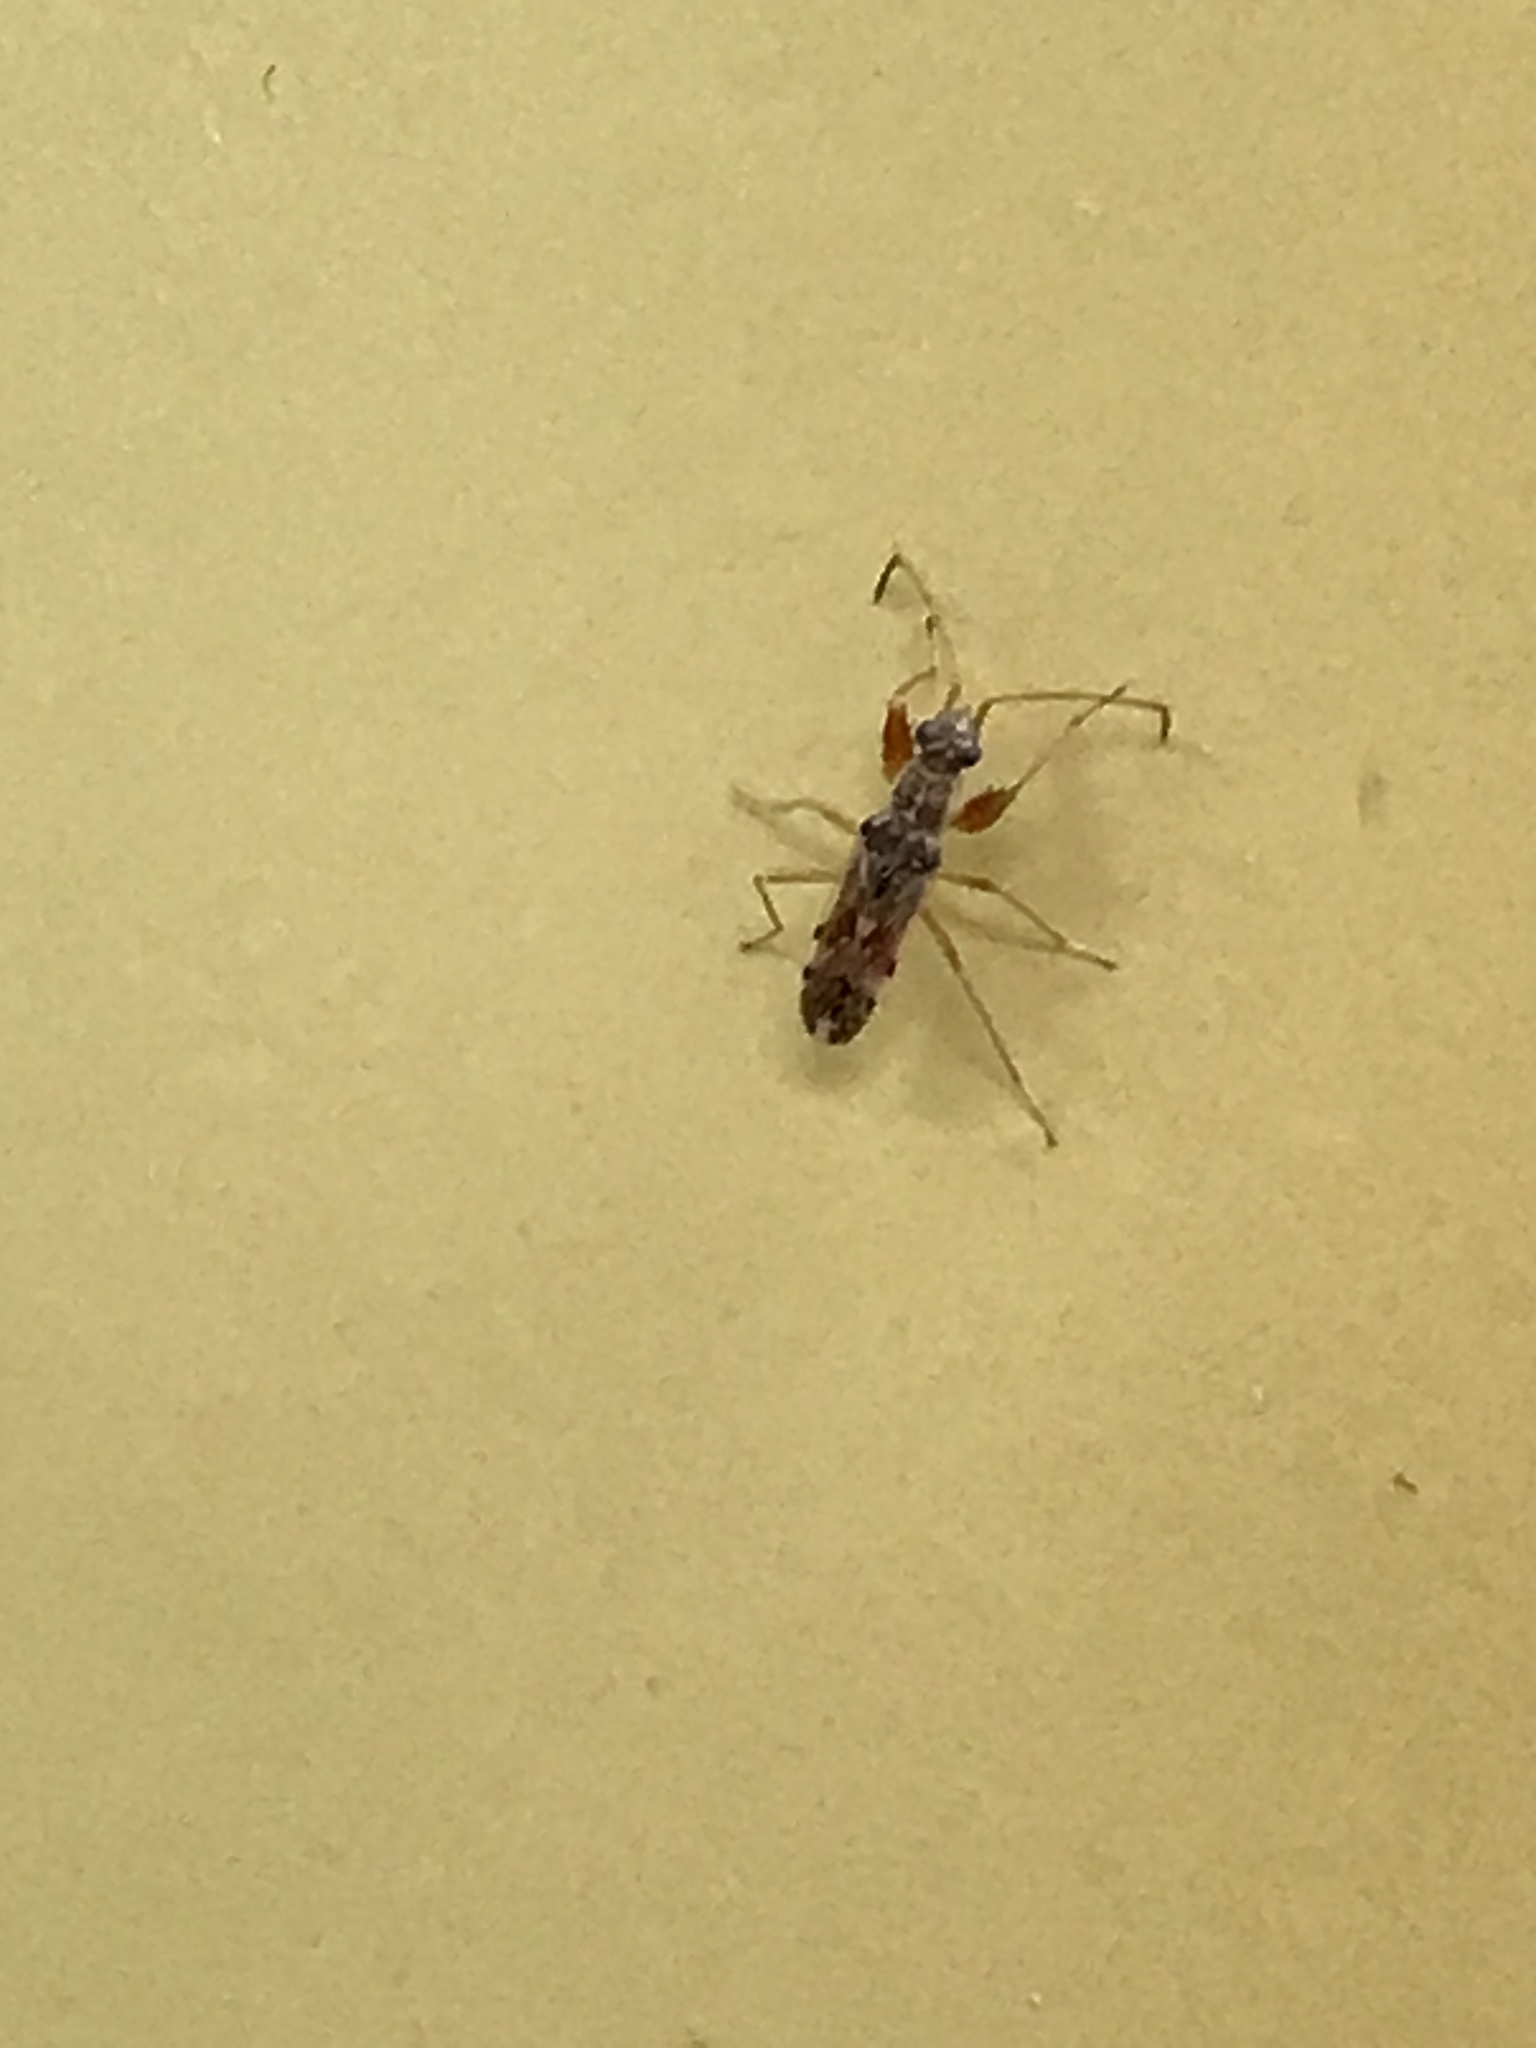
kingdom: Animalia
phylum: Arthropoda
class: Insecta
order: Hemiptera
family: Rhyparochromidae
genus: Neopamera
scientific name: Neopamera bilobata
